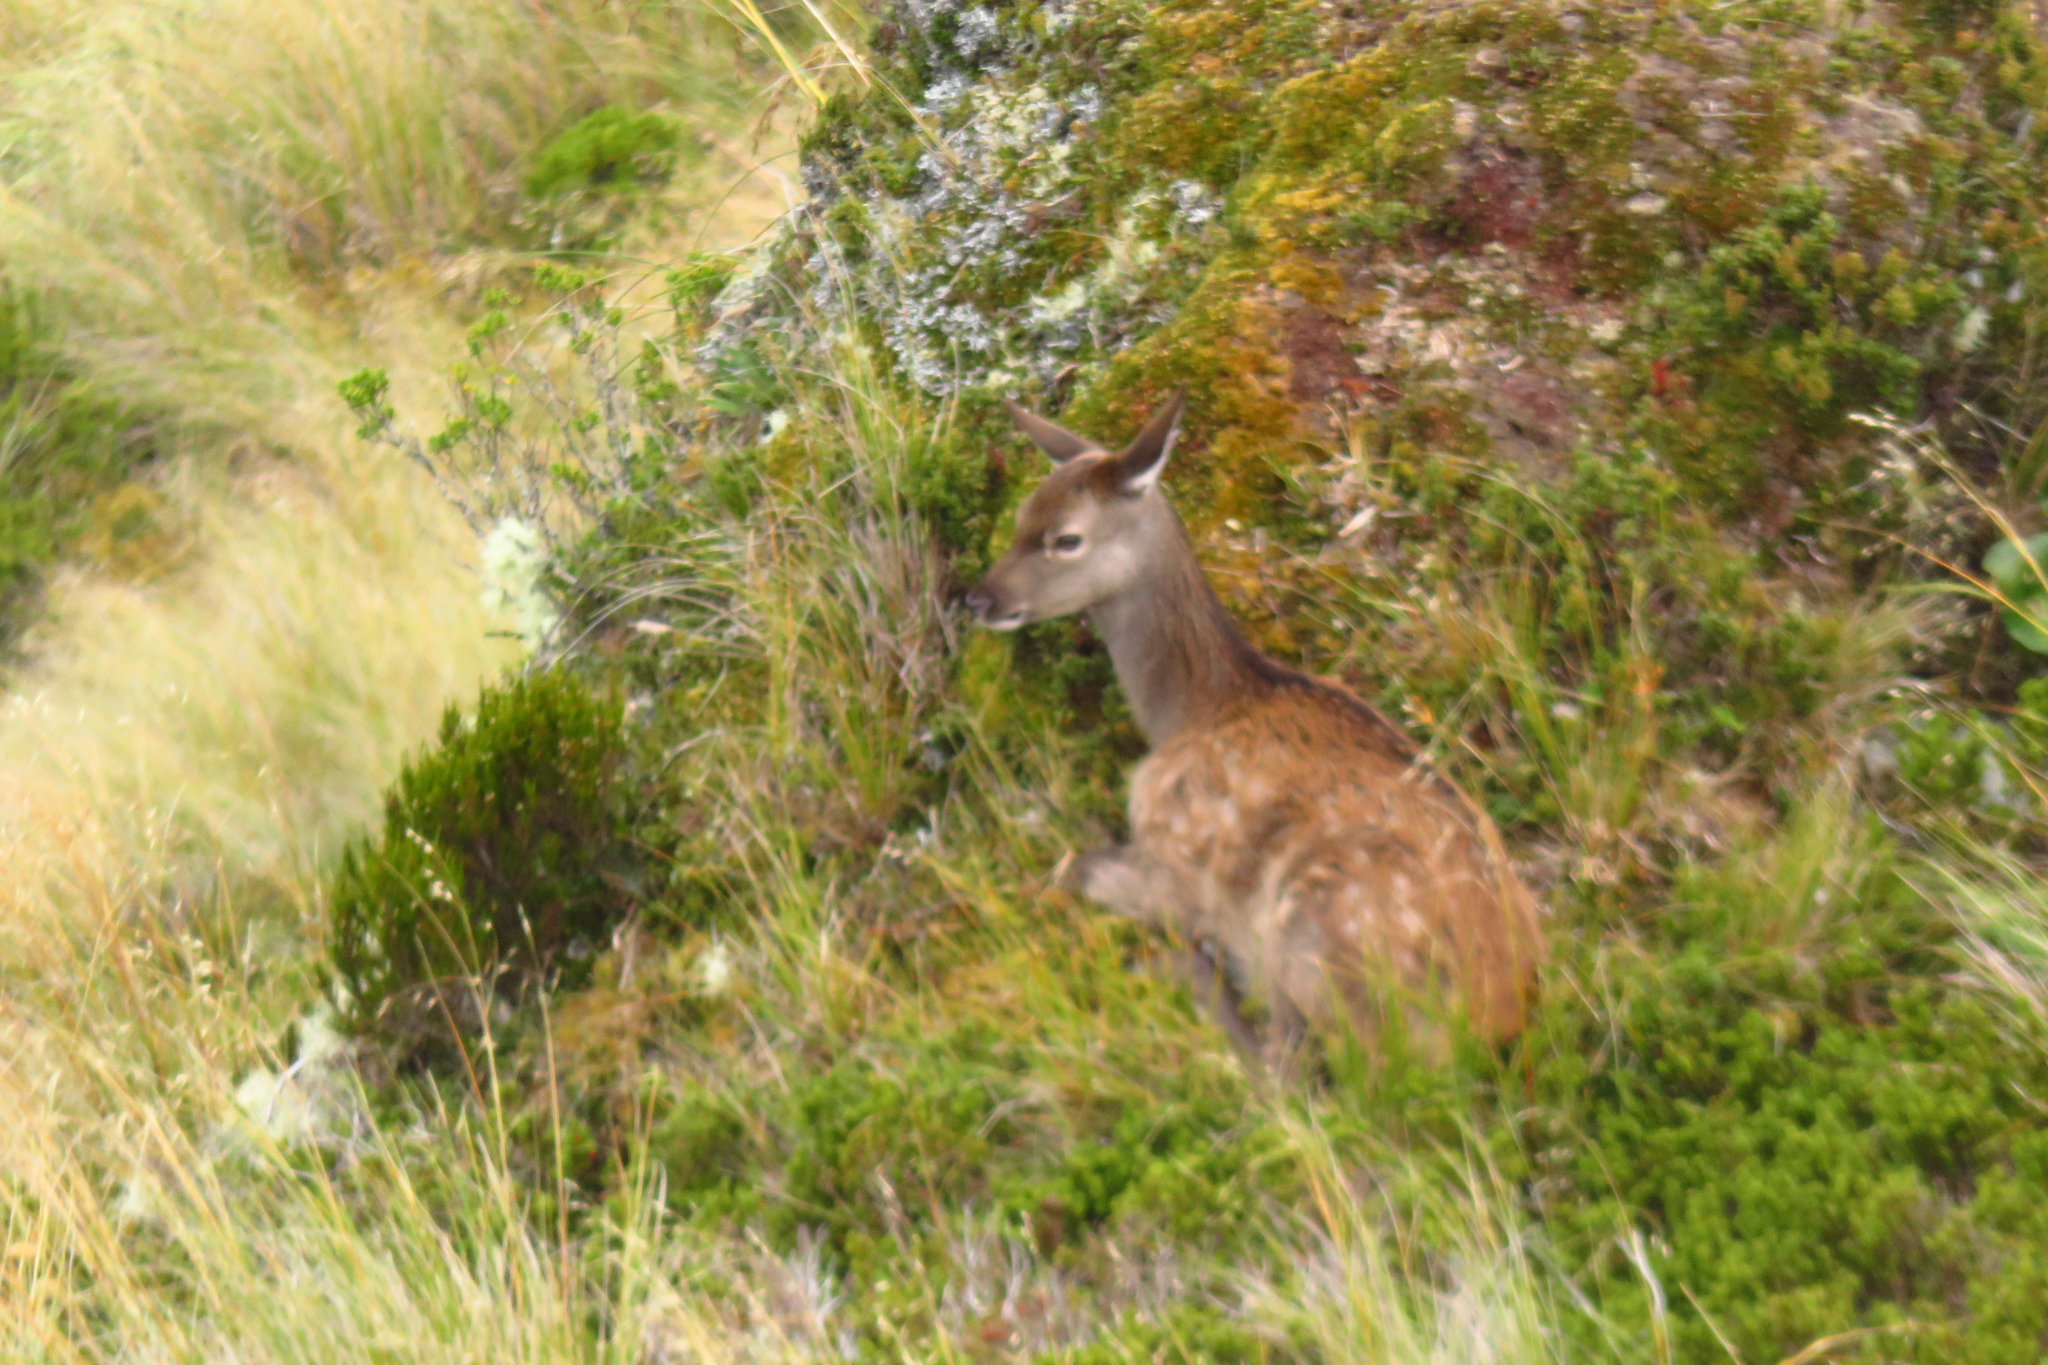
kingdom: Animalia
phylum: Chordata
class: Mammalia
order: Artiodactyla
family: Cervidae
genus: Cervus
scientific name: Cervus elaphus
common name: Red deer
